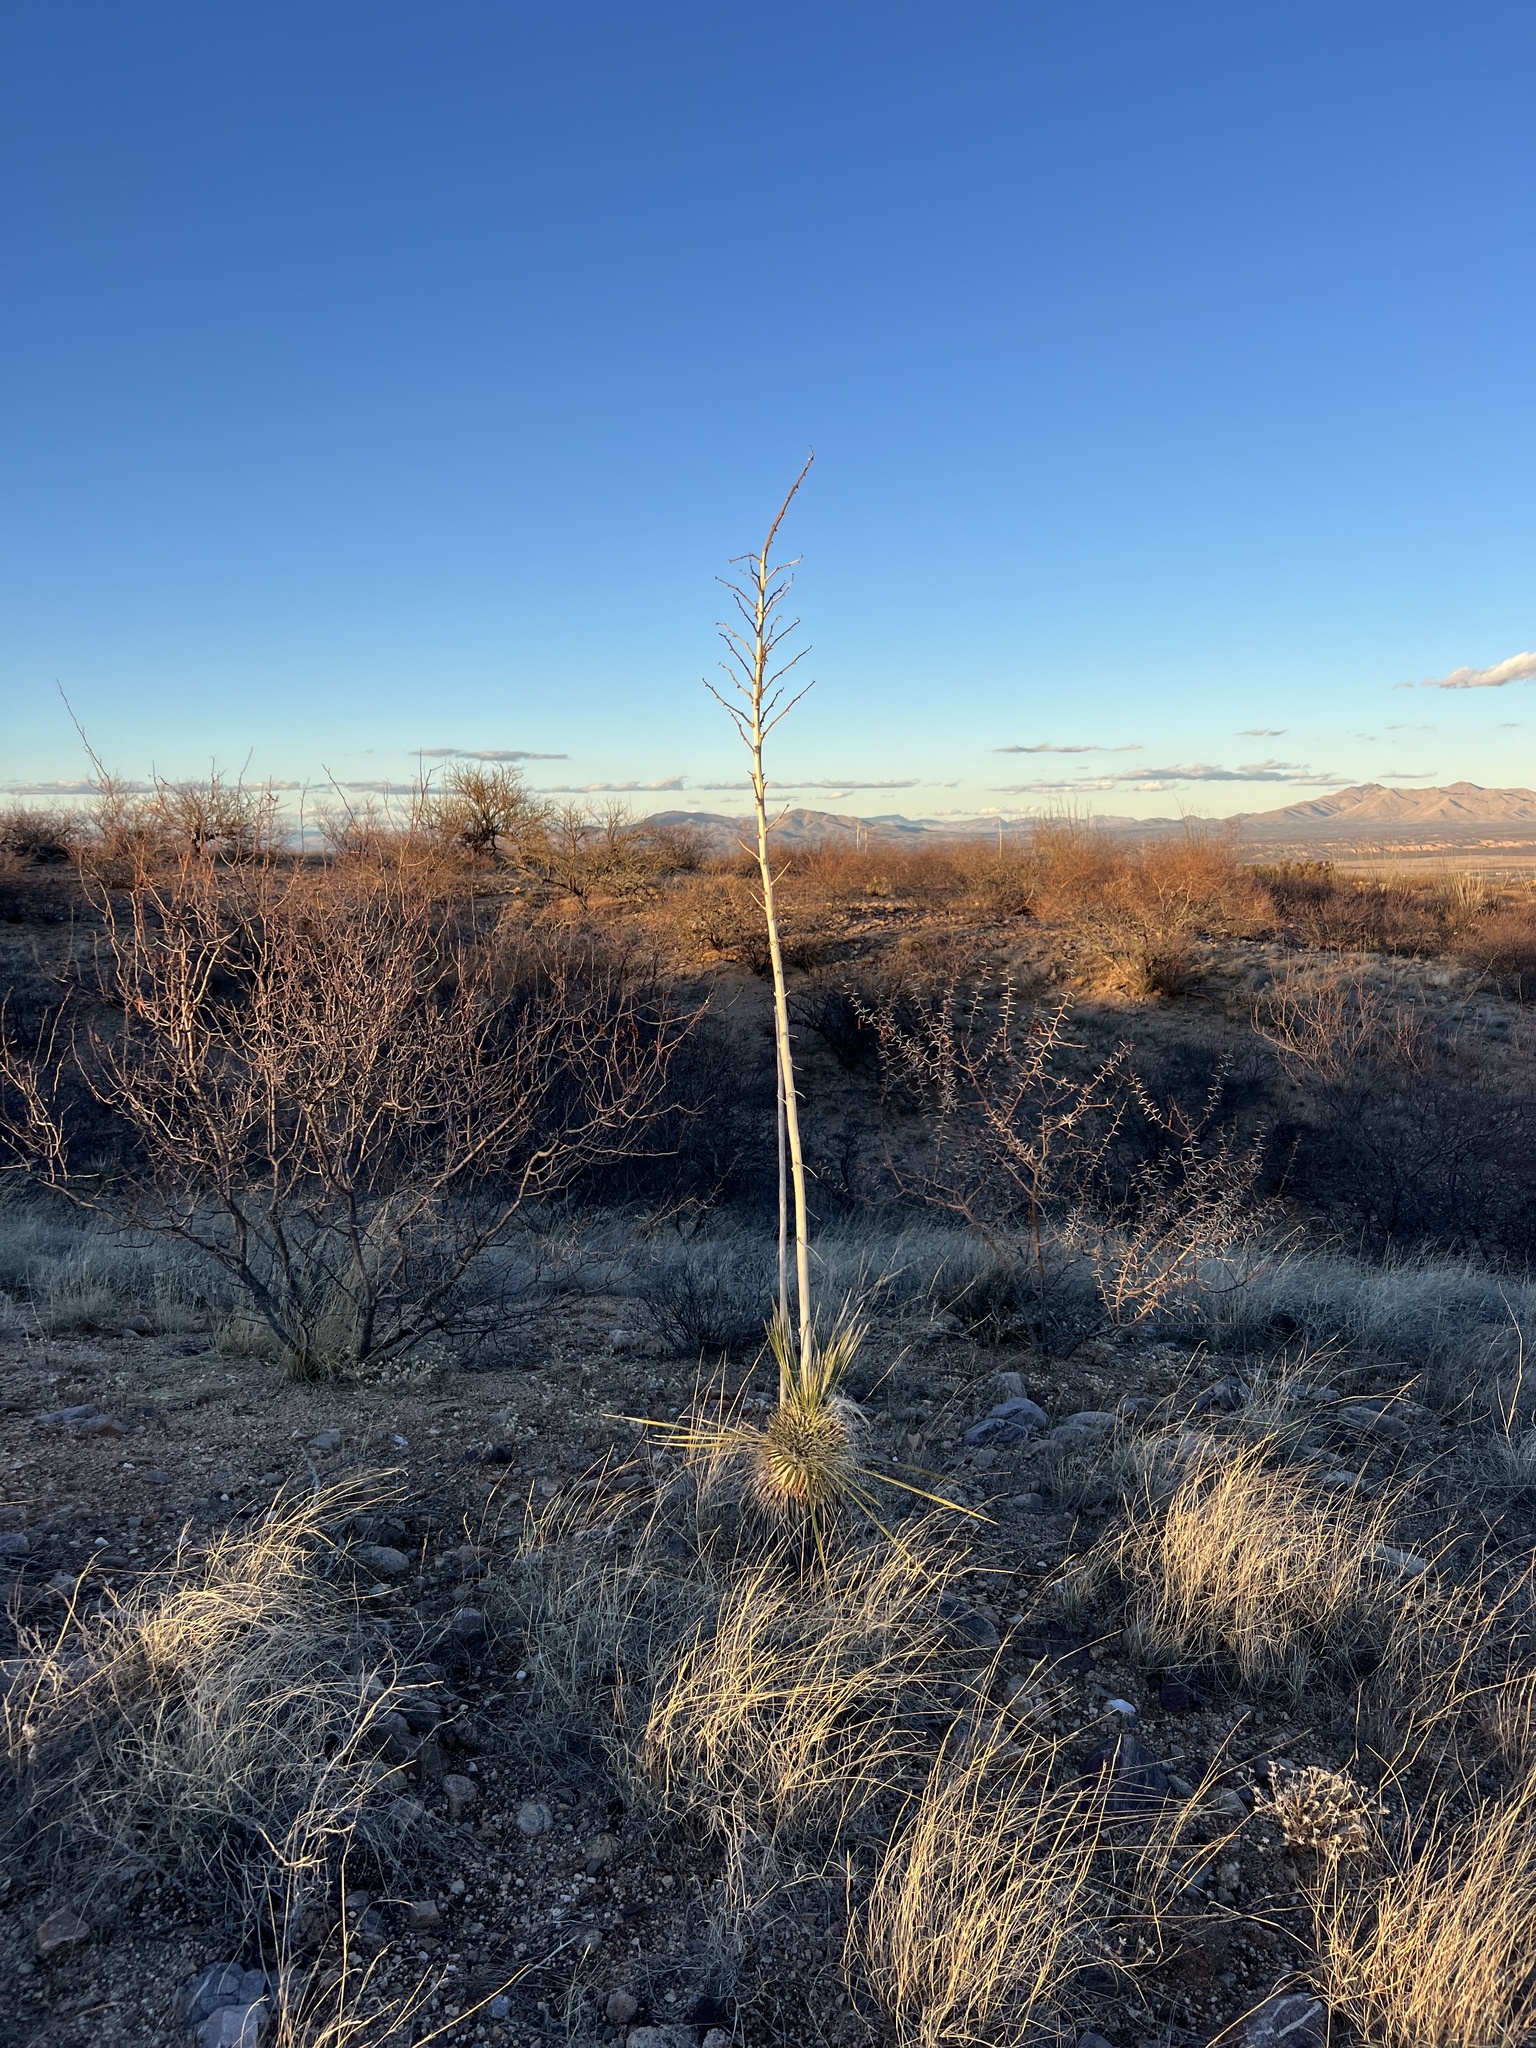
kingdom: Plantae
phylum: Tracheophyta
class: Liliopsida
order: Asparagales
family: Asparagaceae
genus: Yucca
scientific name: Yucca elata
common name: Palmella
